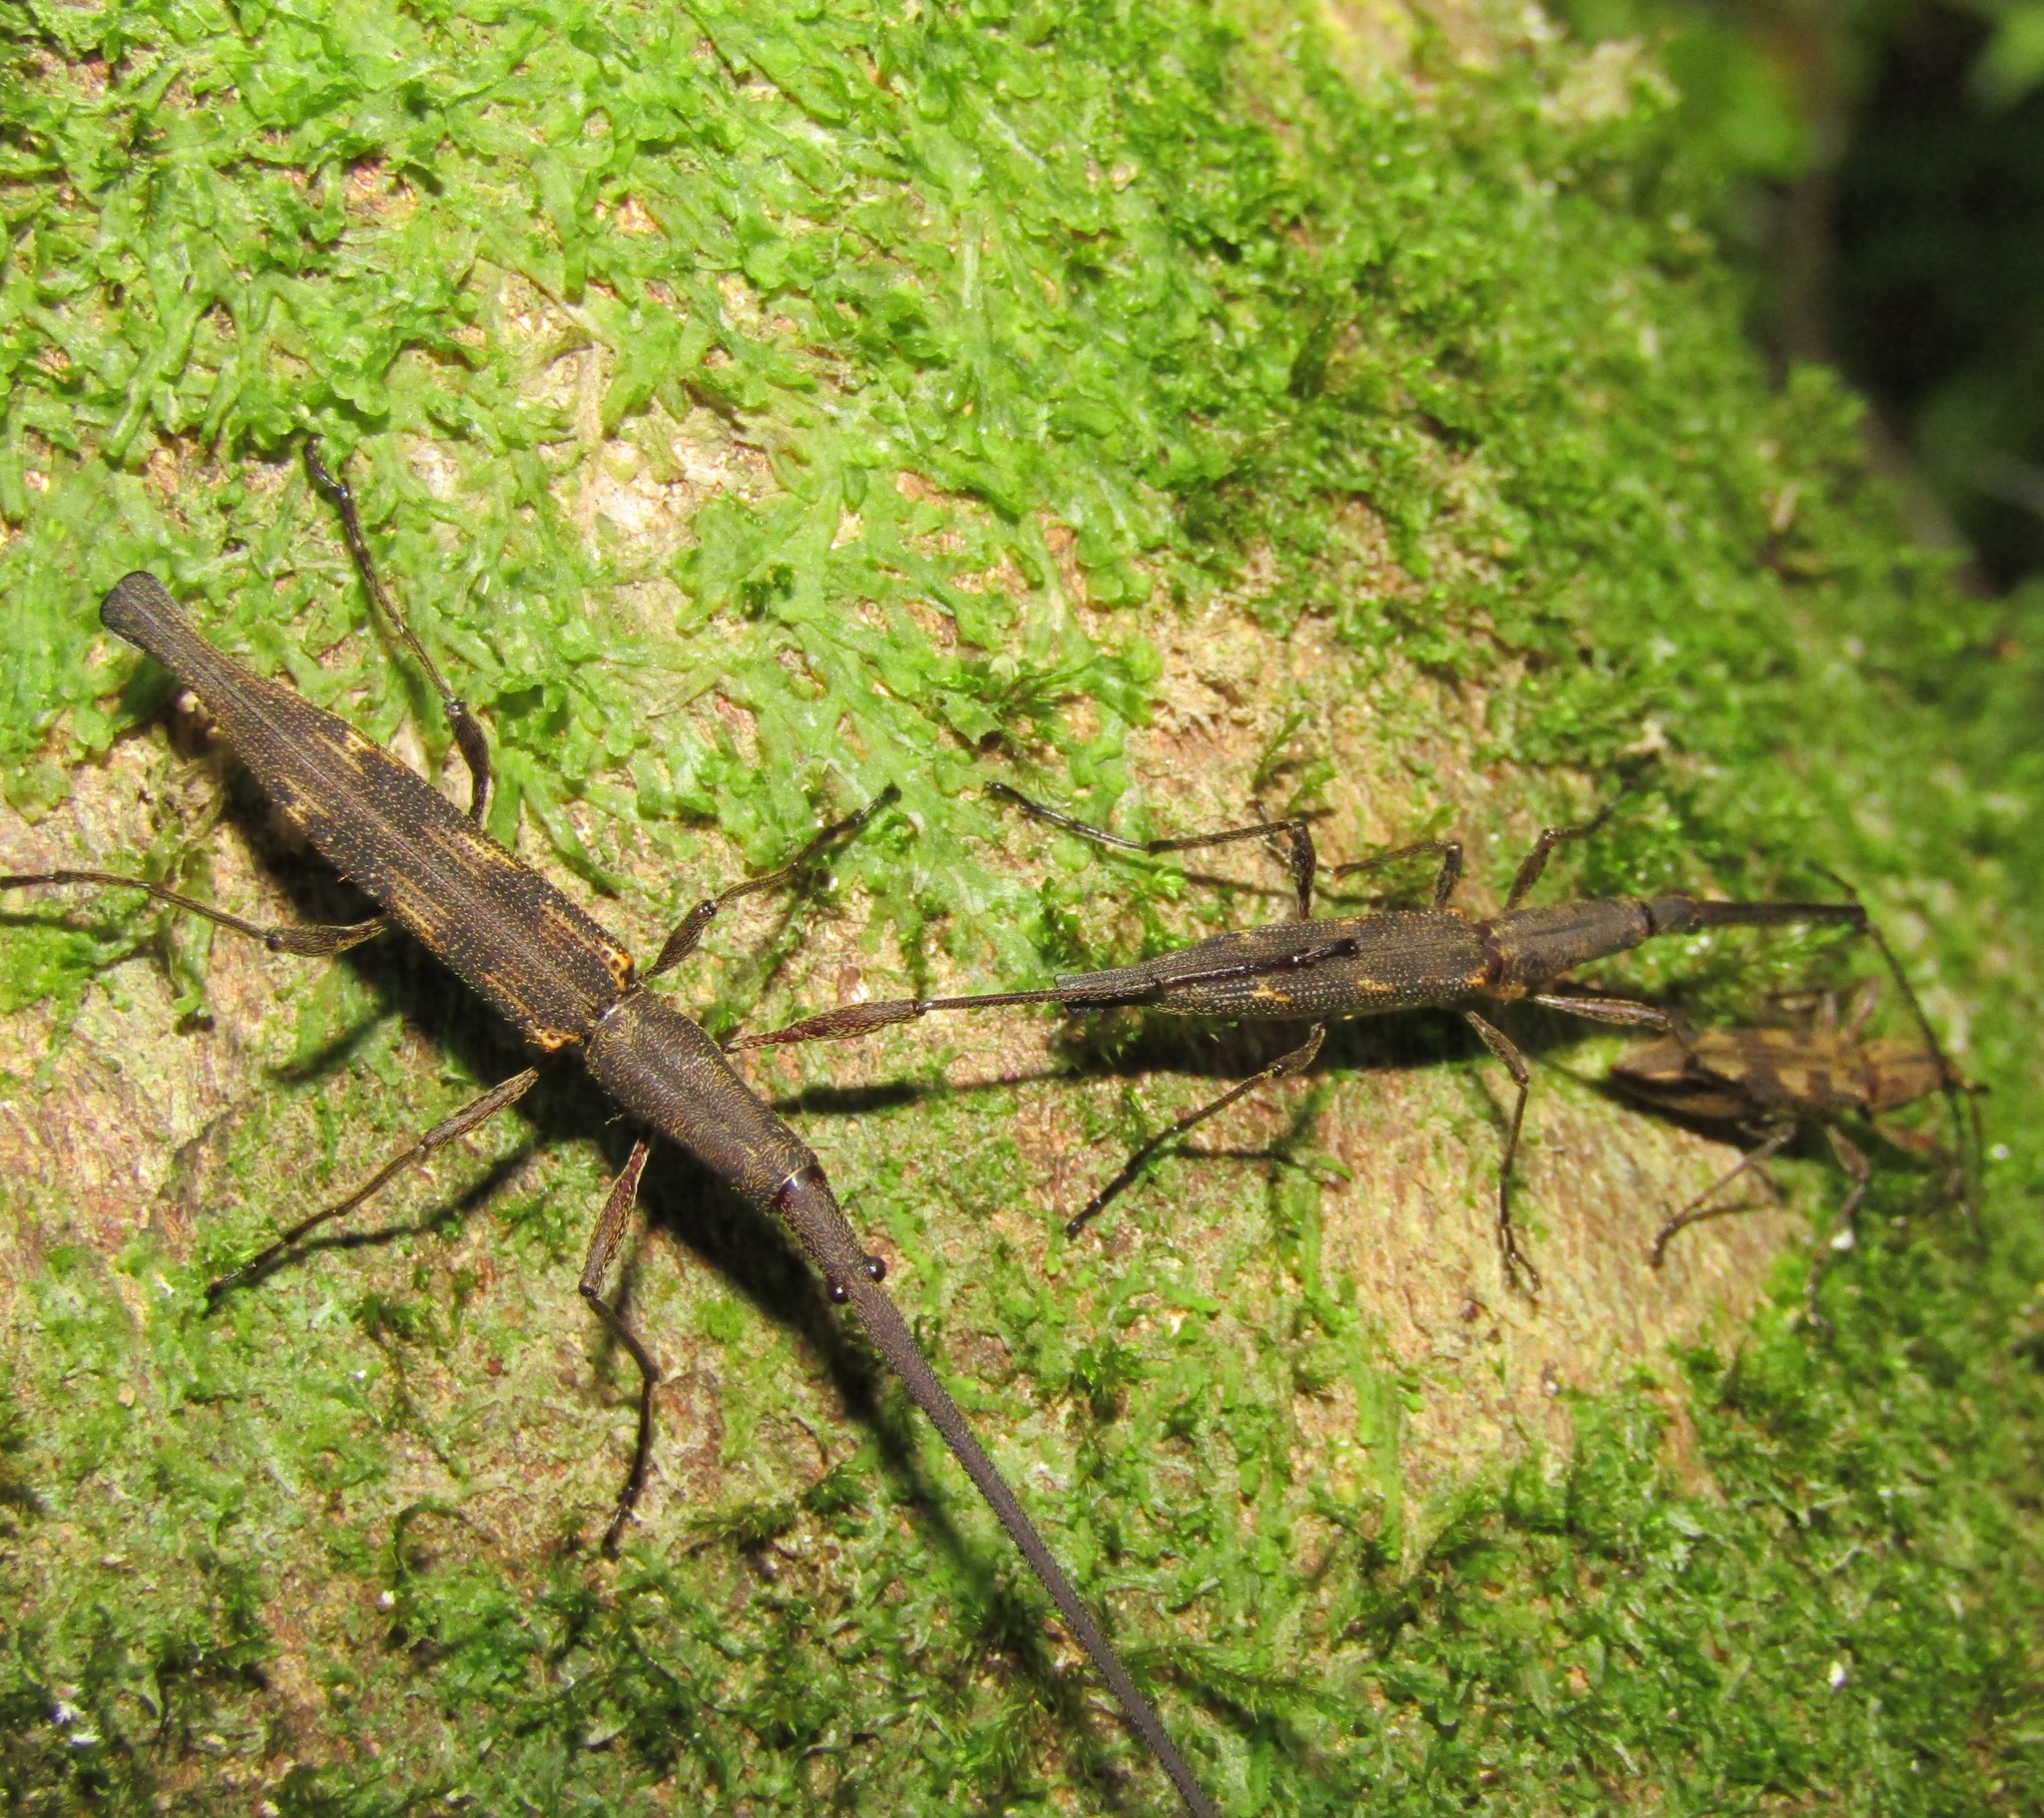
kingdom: Animalia
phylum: Arthropoda
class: Insecta
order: Coleoptera
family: Brentidae
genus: Lasiorhynchus
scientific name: Lasiorhynchus barbicornis
